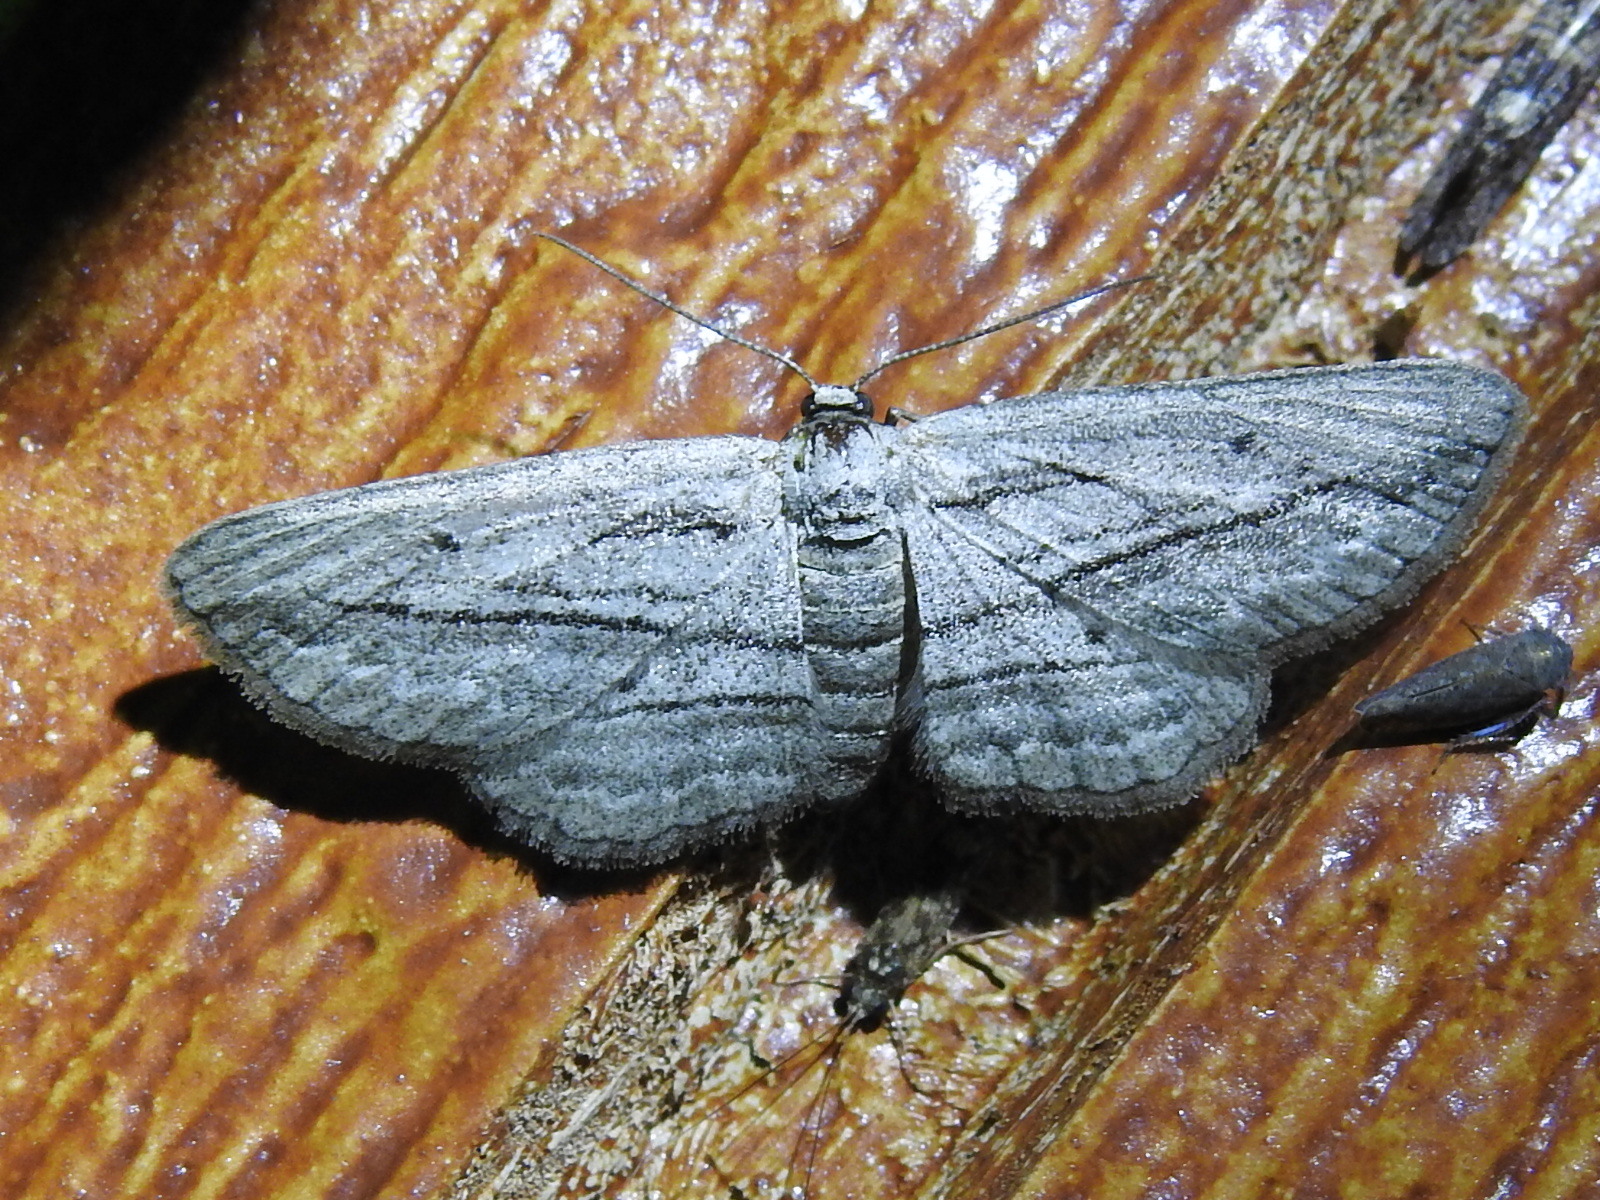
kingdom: Animalia
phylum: Arthropoda
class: Insecta
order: Lepidoptera
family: Geometridae
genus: Glena
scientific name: Glena quinquelinearia
